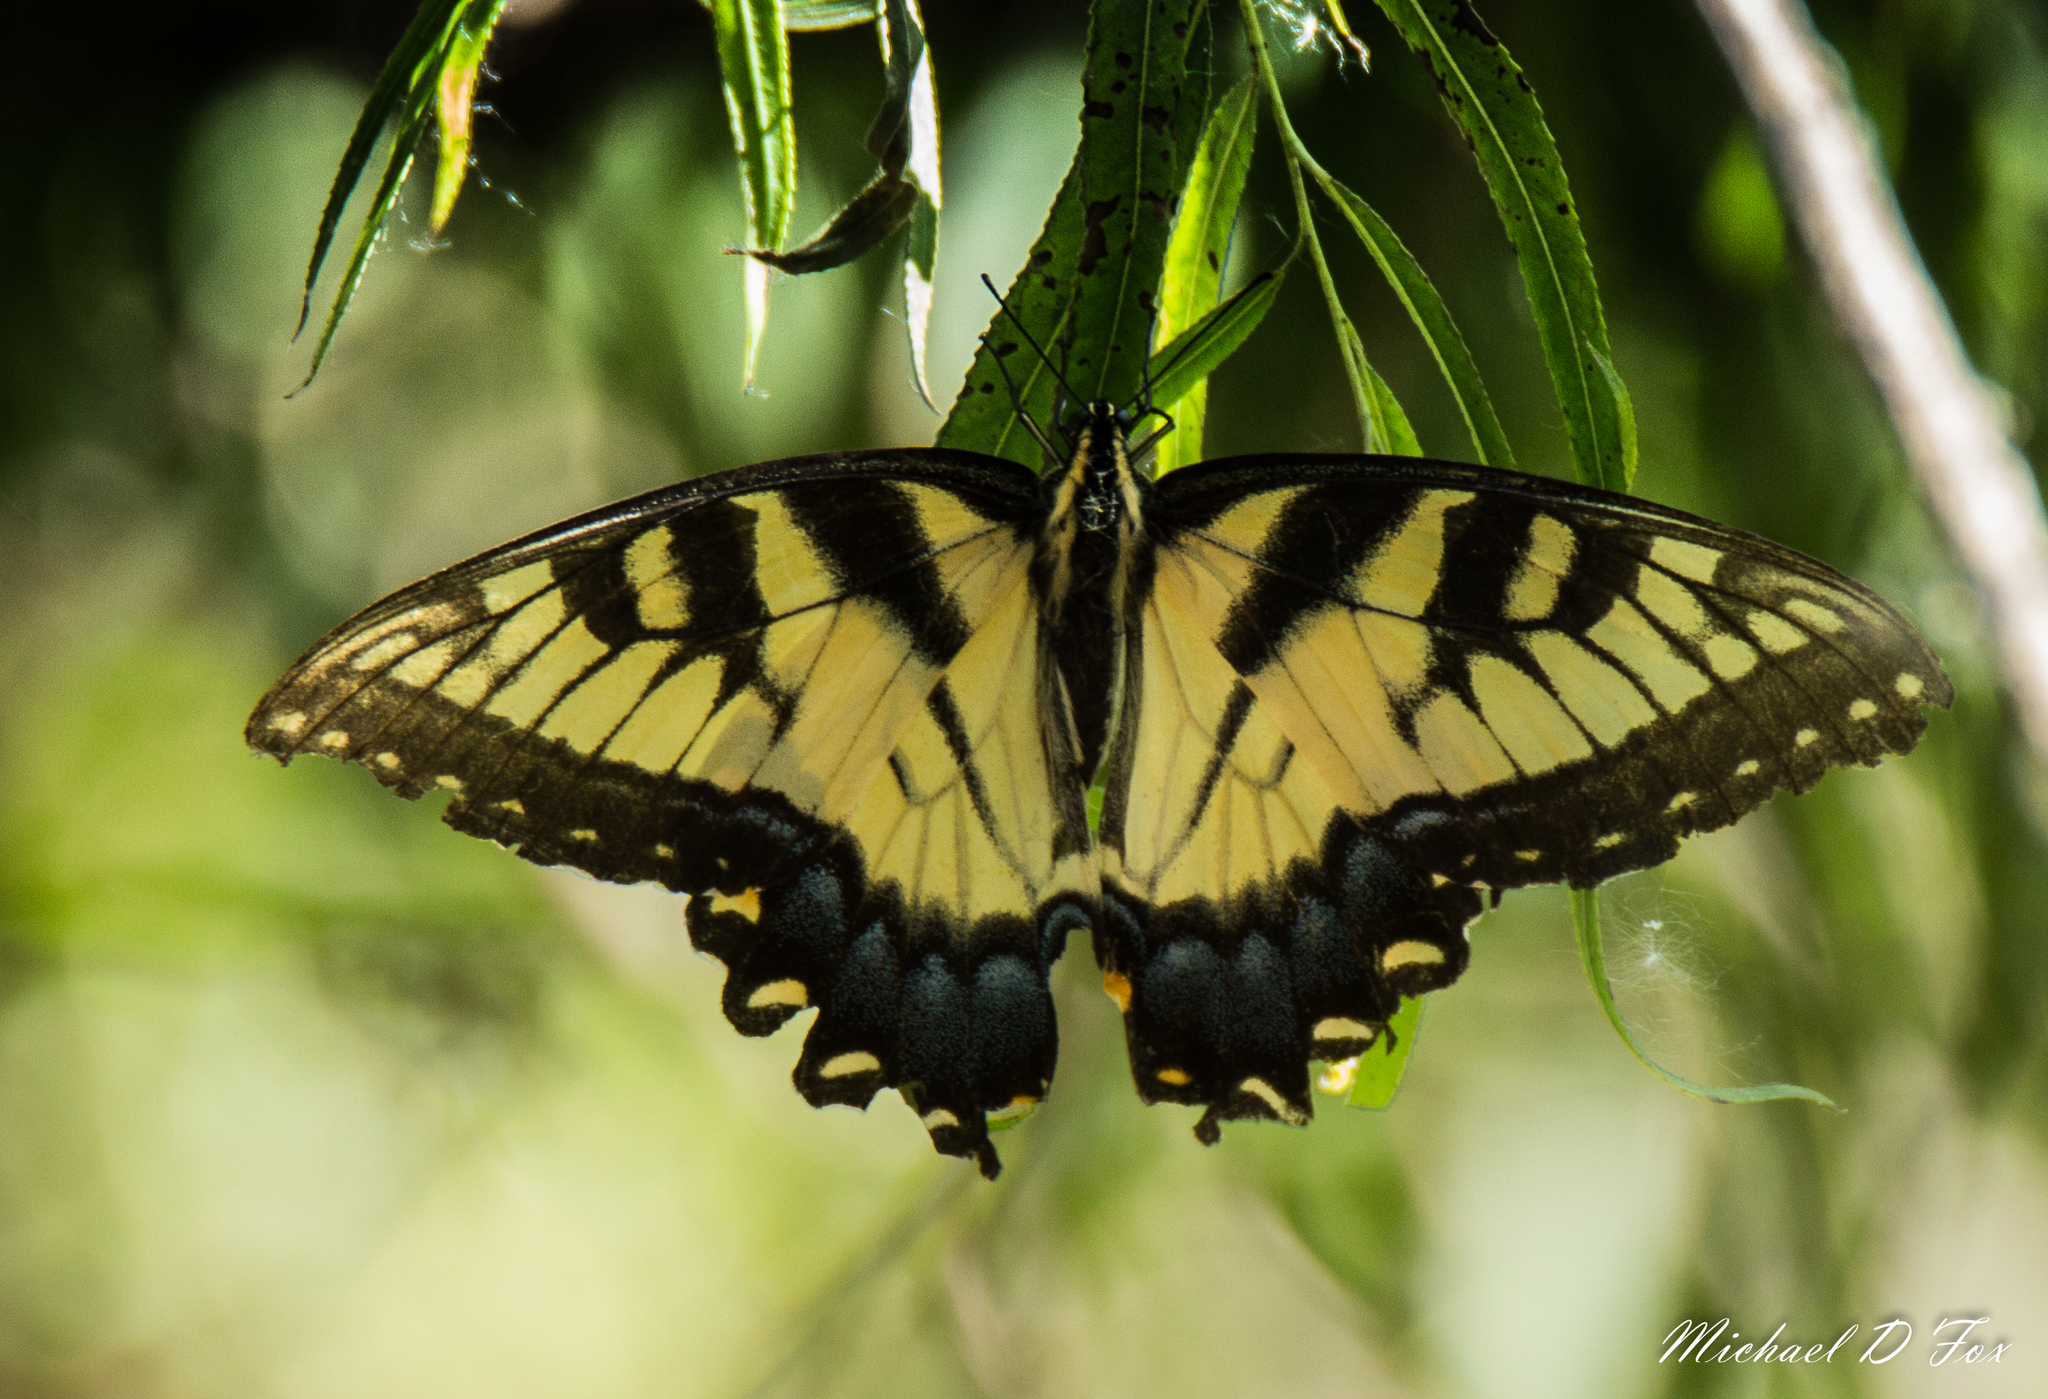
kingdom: Animalia
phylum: Arthropoda
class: Insecta
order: Lepidoptera
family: Papilionidae
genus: Papilio
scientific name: Papilio glaucus
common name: Tiger swallowtail
